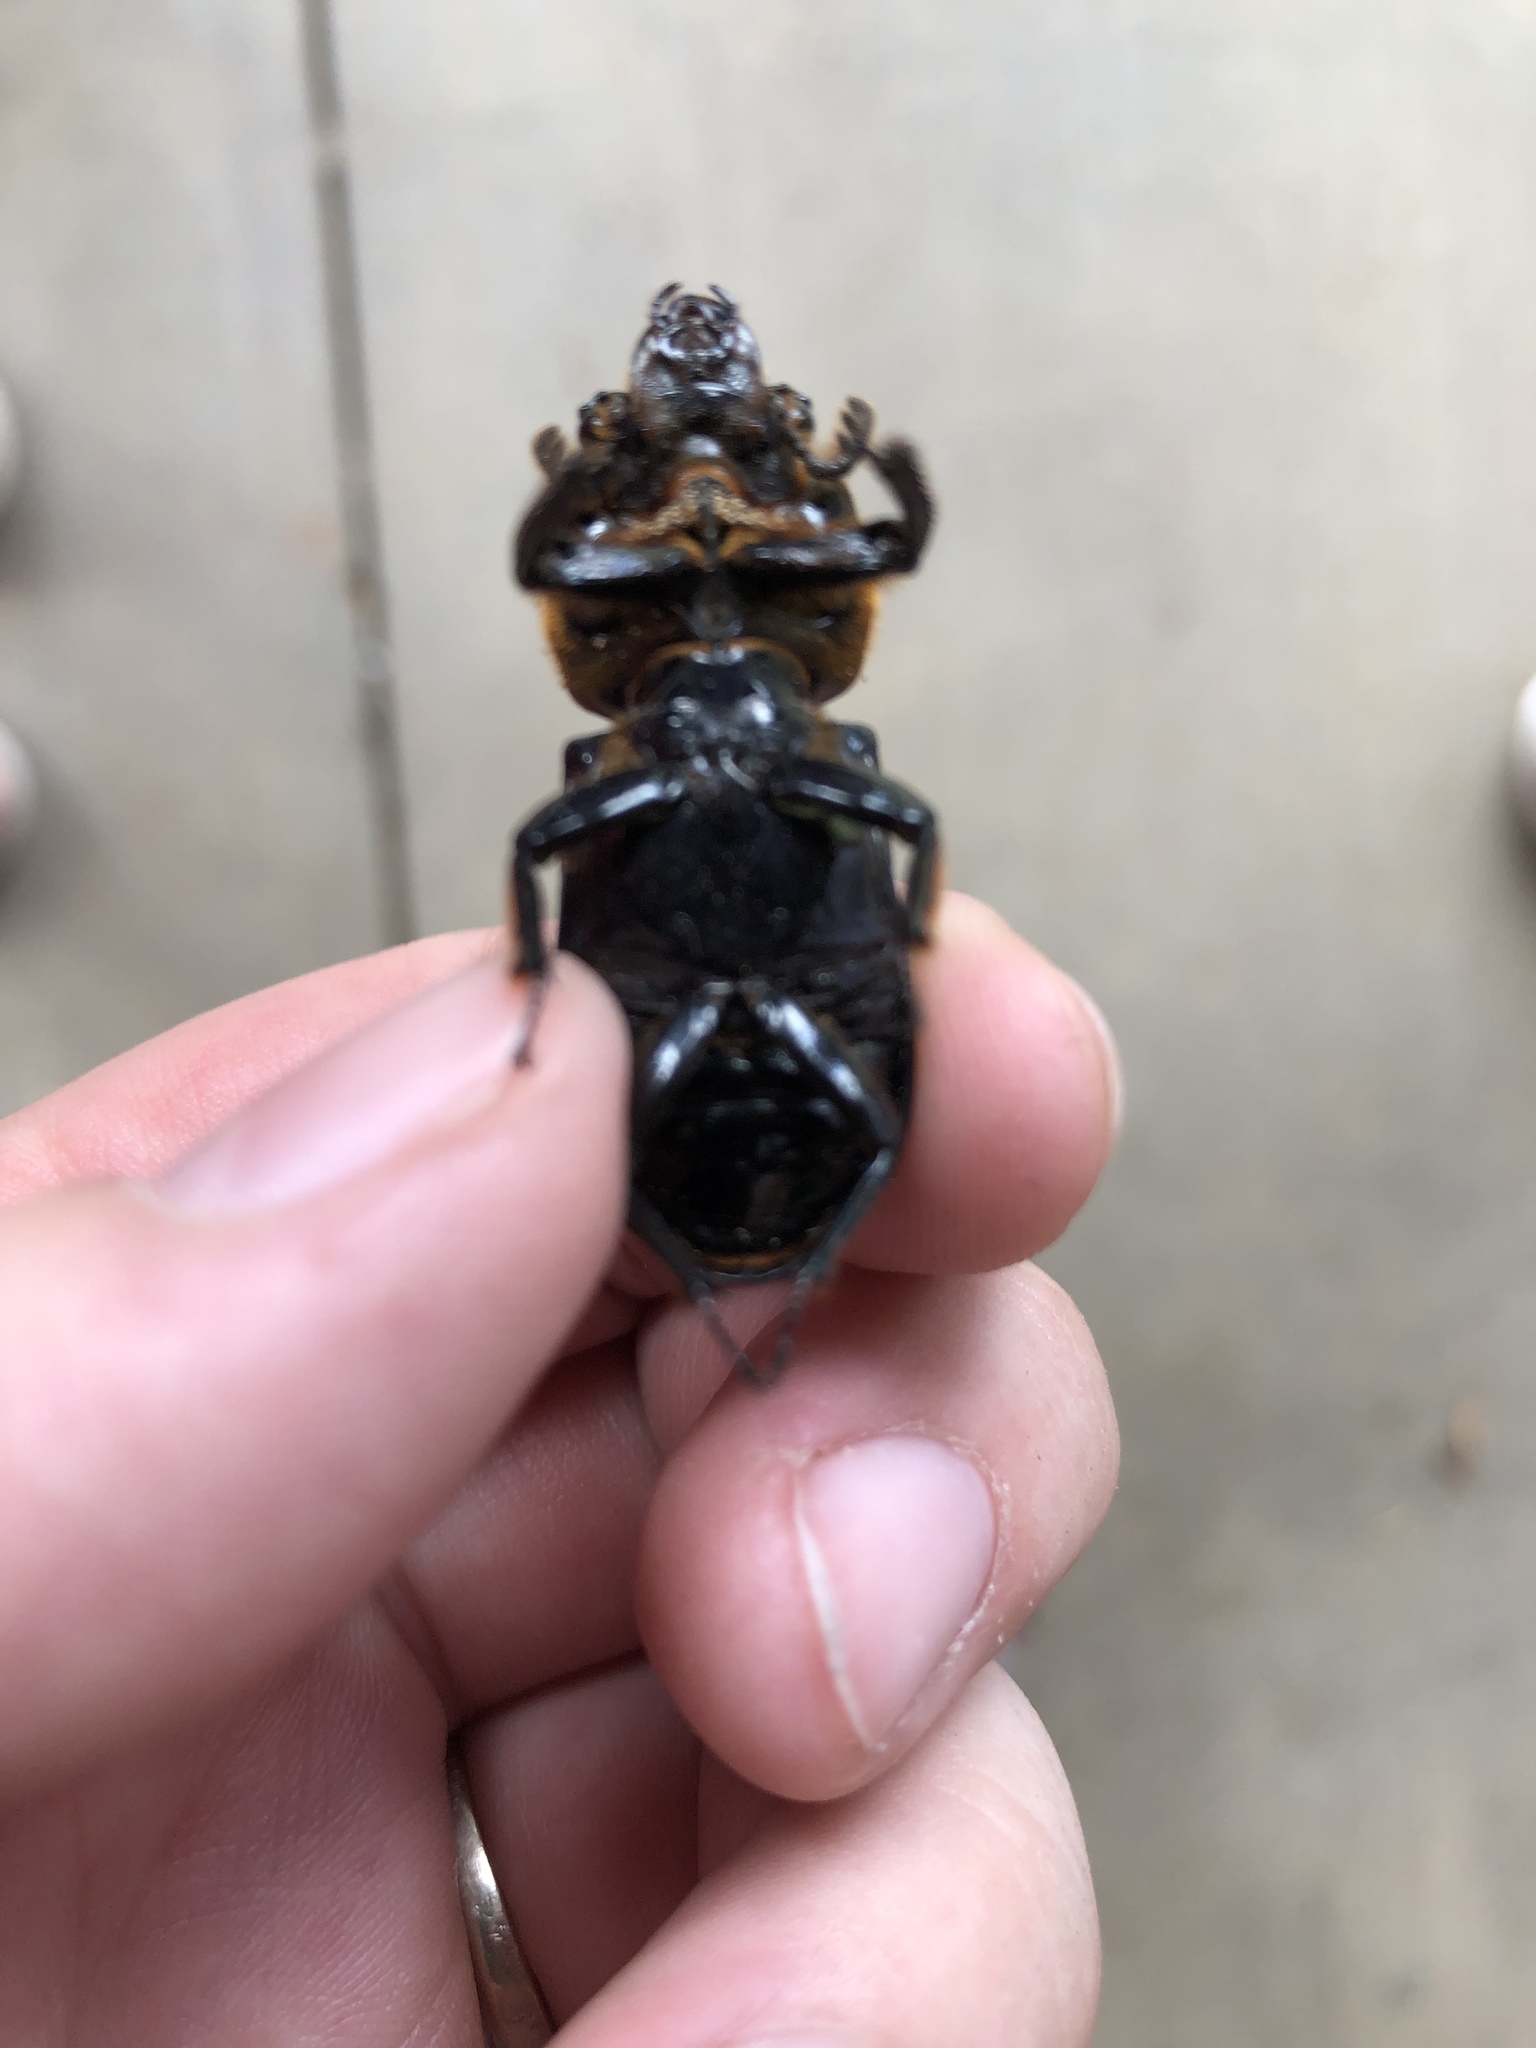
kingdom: Animalia
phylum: Arthropoda
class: Insecta
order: Coleoptera
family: Passalidae
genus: Odontotaenius
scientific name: Odontotaenius disjunctus
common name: Patent leather beetle
